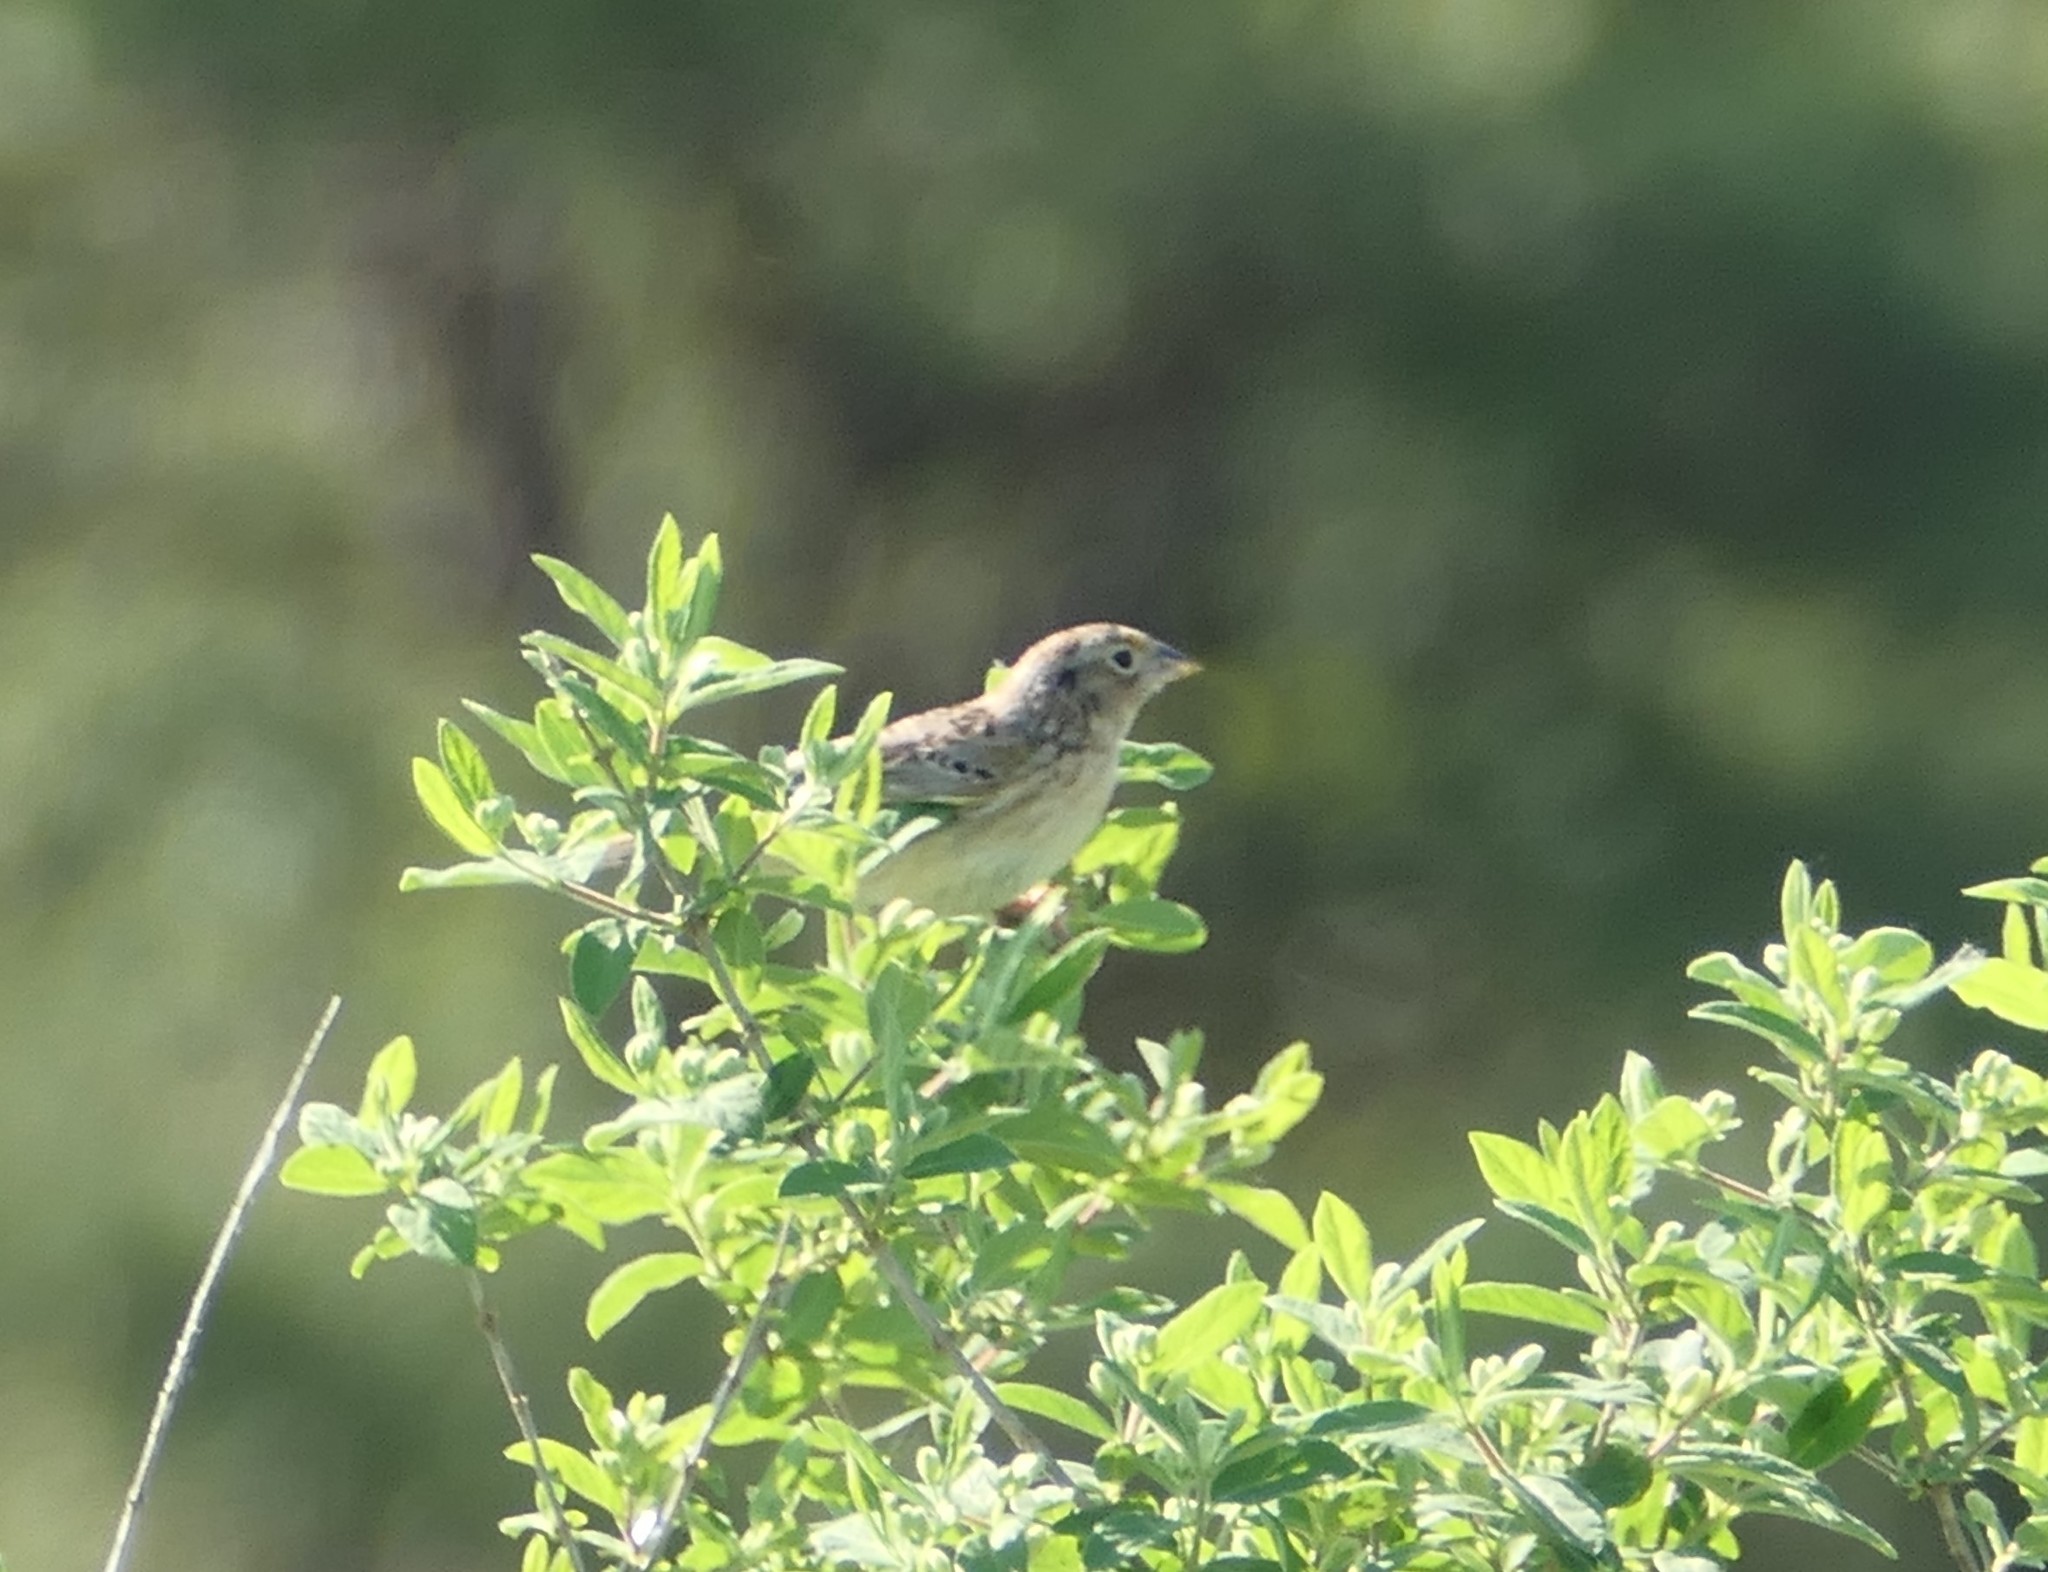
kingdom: Animalia
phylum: Chordata
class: Aves
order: Passeriformes
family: Passerellidae
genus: Ammodramus
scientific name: Ammodramus savannarum
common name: Grasshopper sparrow
